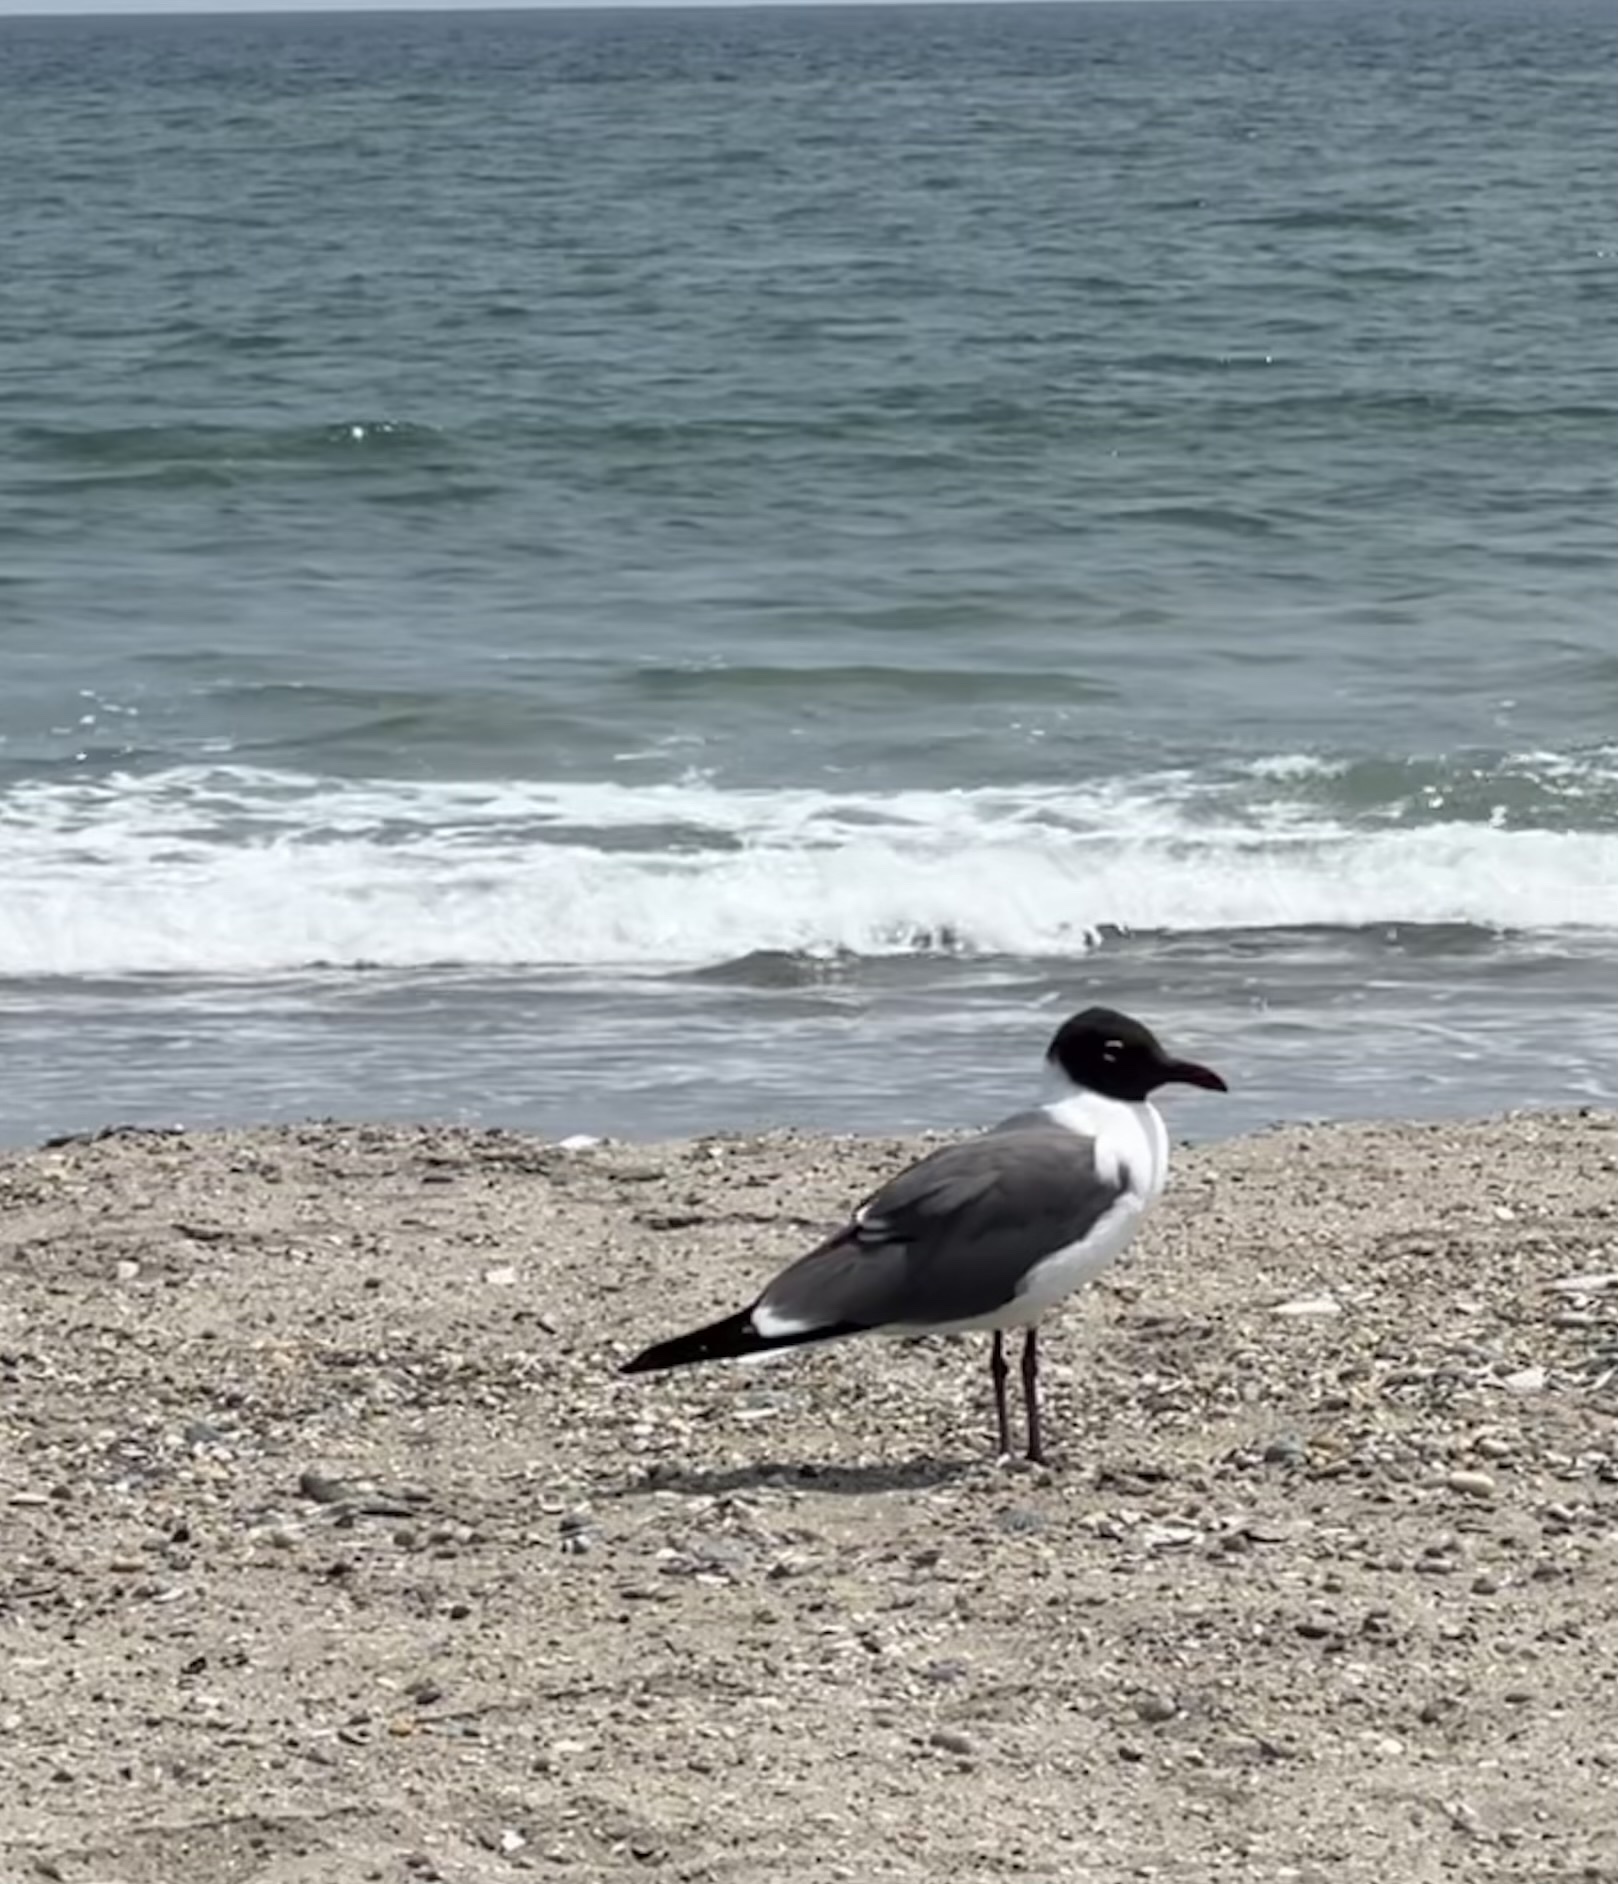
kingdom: Animalia
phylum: Chordata
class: Aves
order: Charadriiformes
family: Laridae
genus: Leucophaeus
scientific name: Leucophaeus atricilla
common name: Laughing gull
